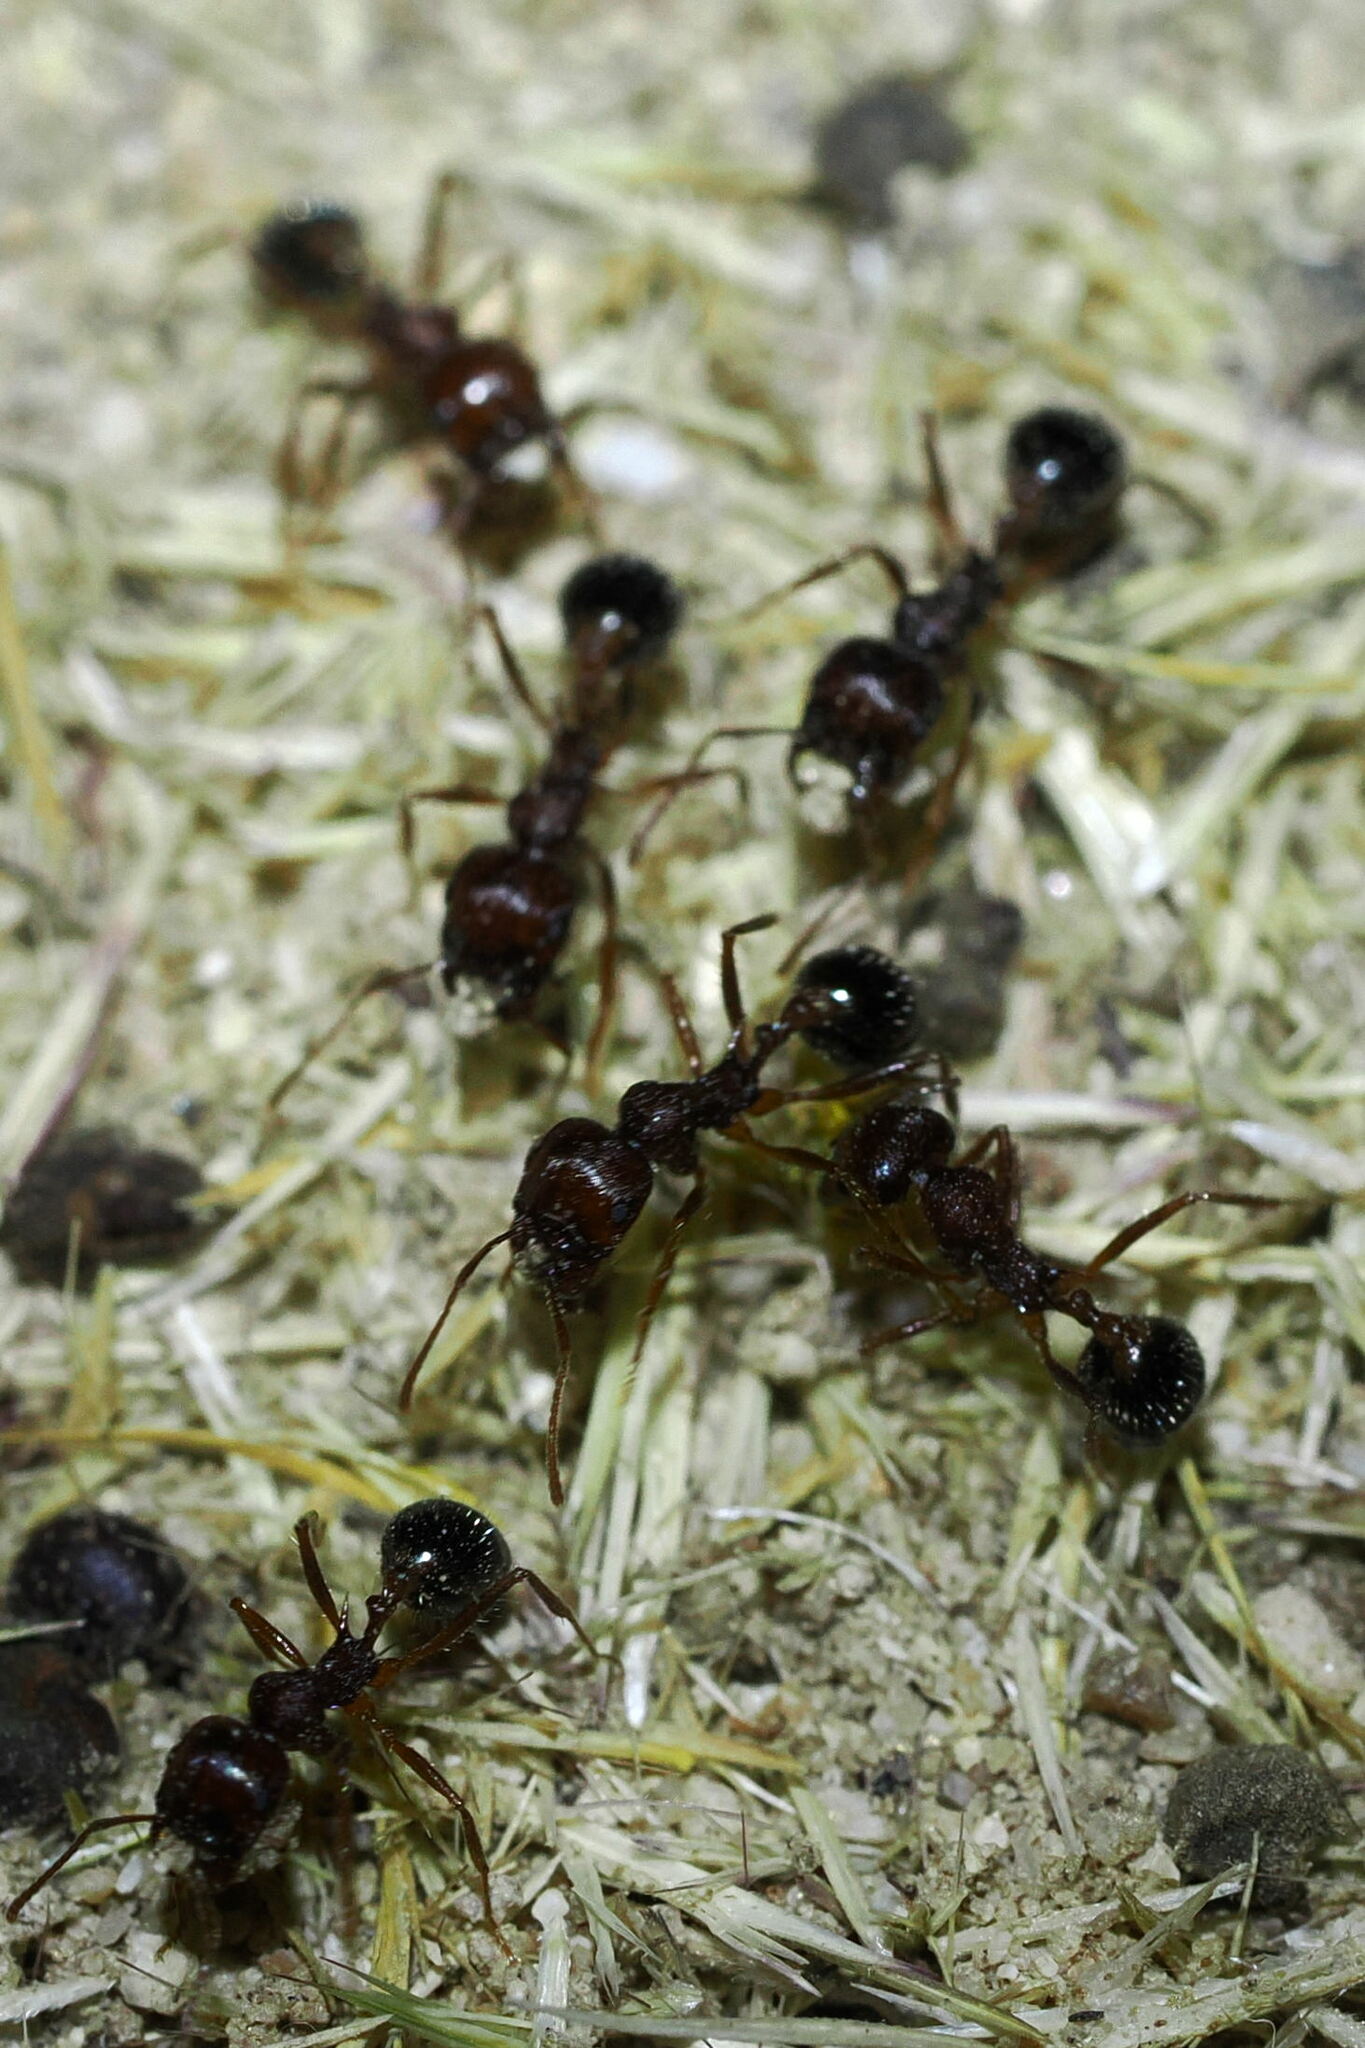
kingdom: Animalia
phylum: Arthropoda
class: Insecta
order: Hymenoptera
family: Formicidae
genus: Messor
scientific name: Messor julianus
